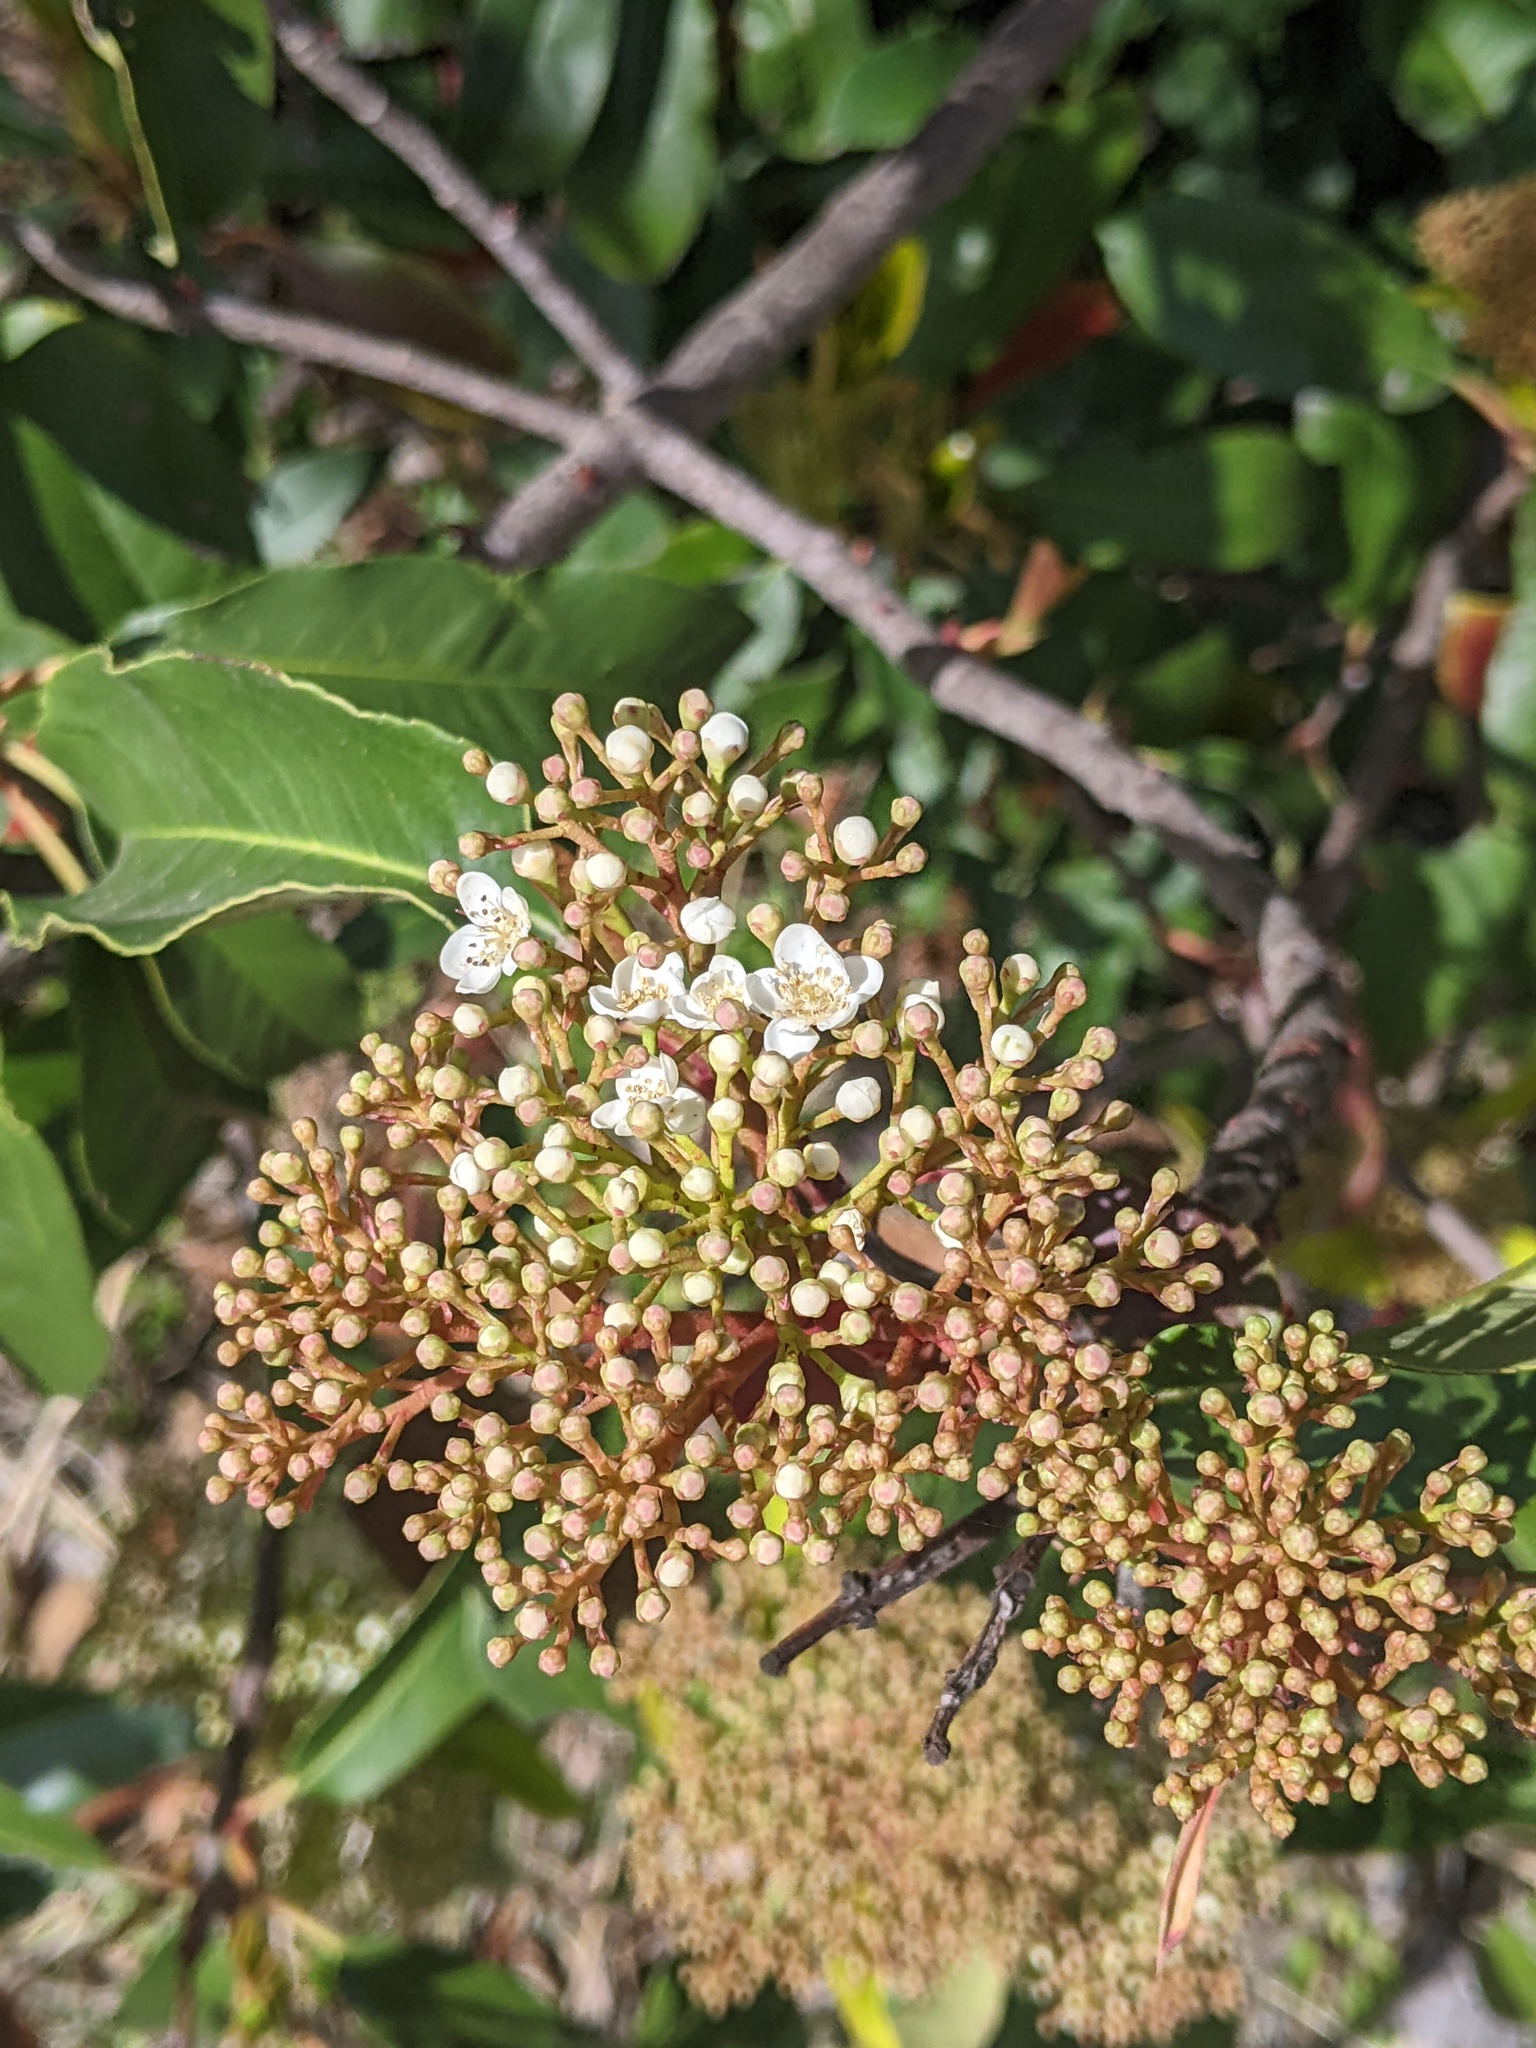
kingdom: Plantae
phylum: Tracheophyta
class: Magnoliopsida
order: Rosales
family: Rosaceae
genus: Photinia
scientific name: Photinia serratifolia
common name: Taiwanese photinia
